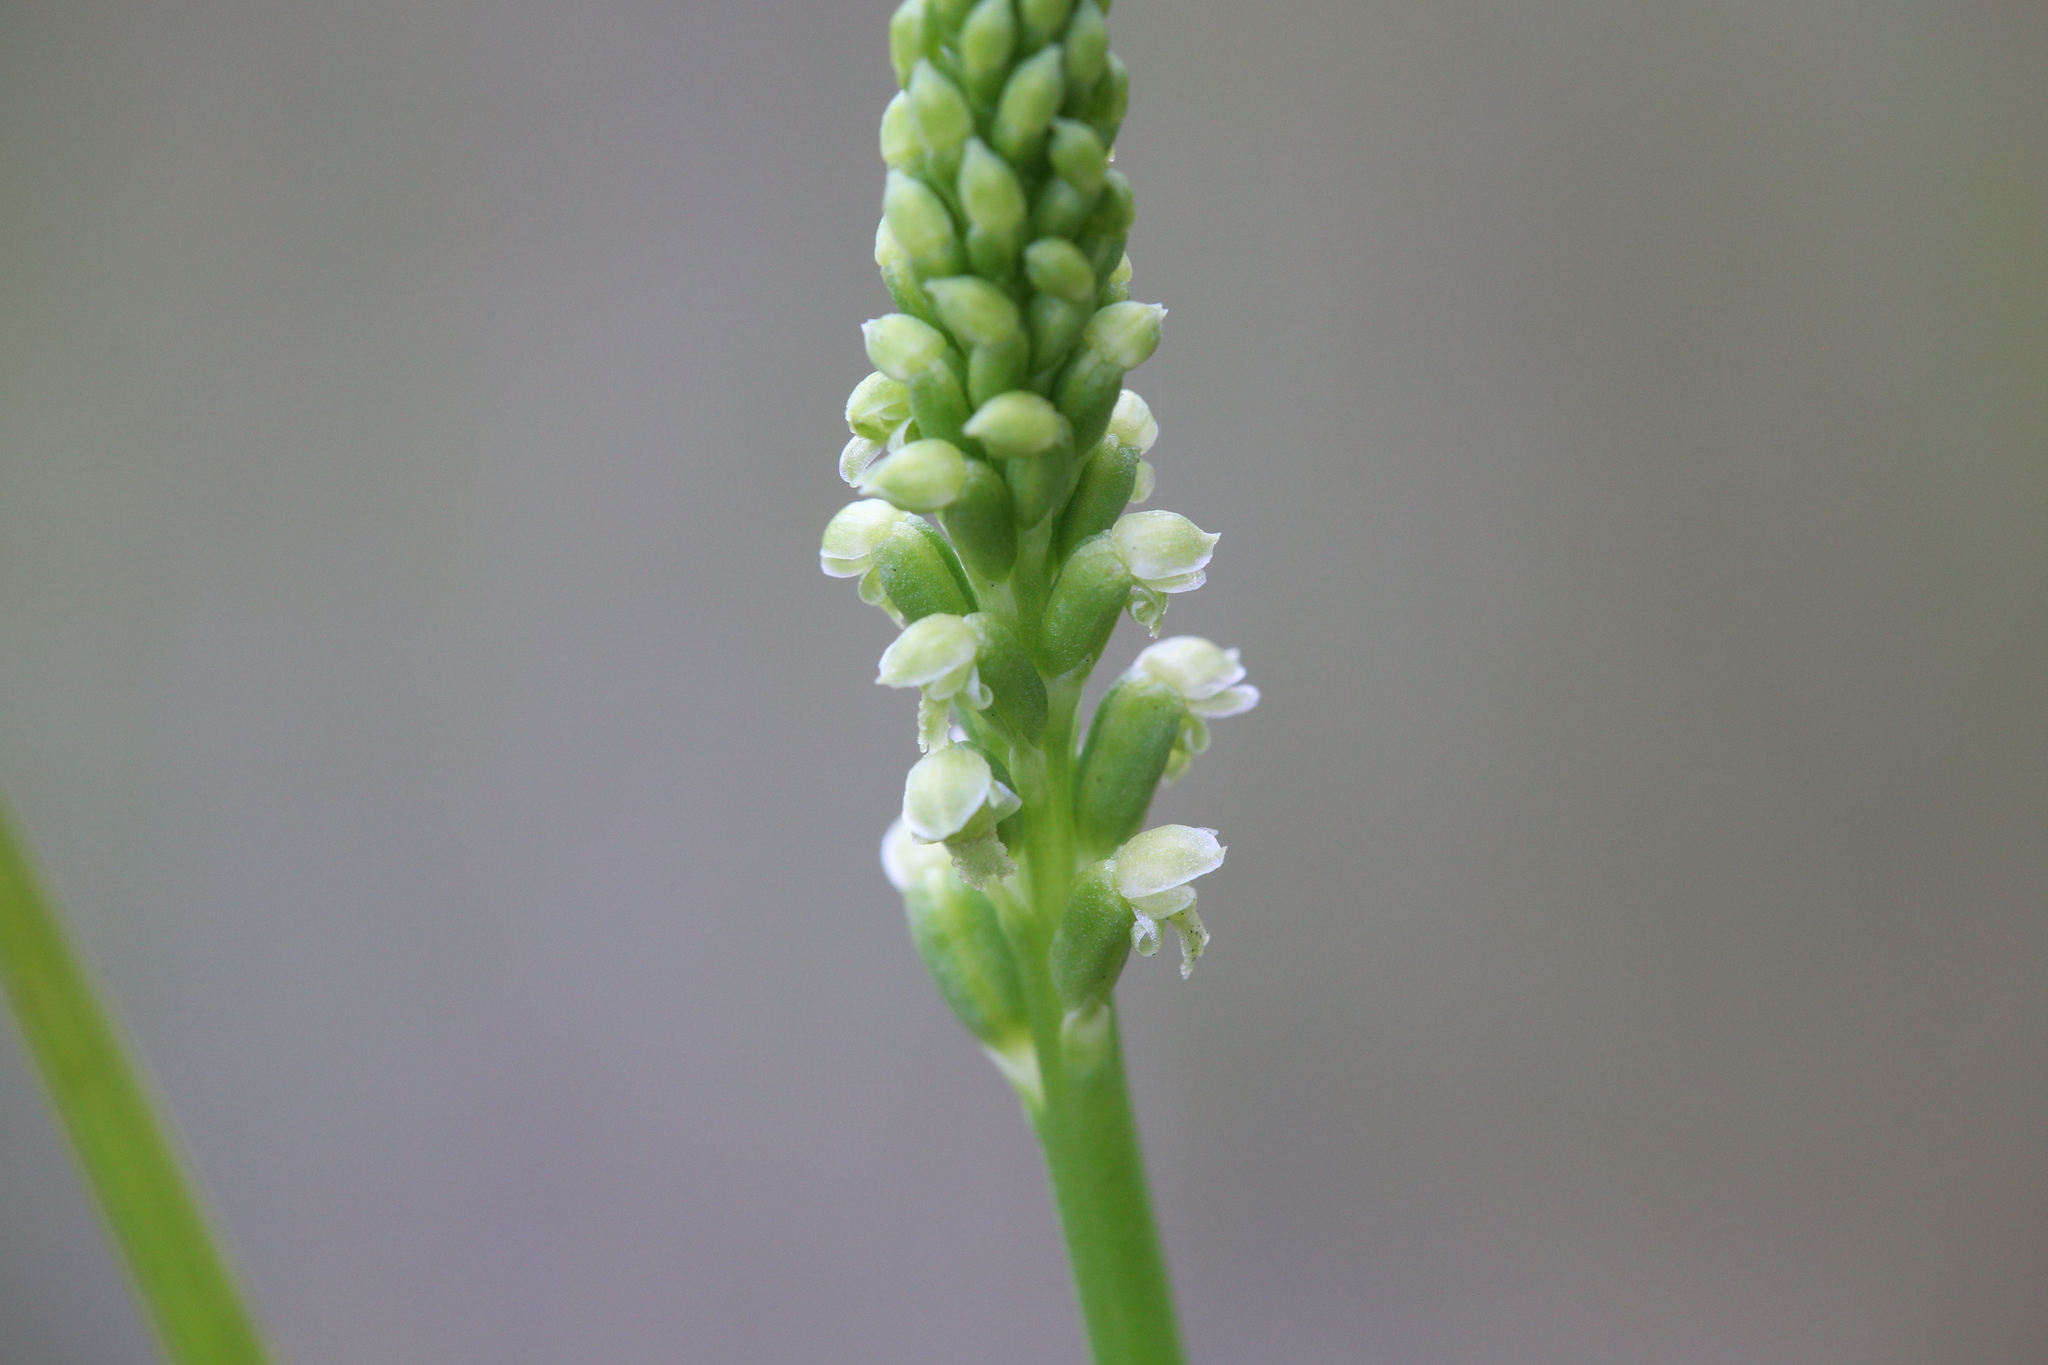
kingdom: Plantae
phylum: Tracheophyta
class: Liliopsida
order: Asparagales
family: Orchidaceae
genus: Microtis
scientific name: Microtis alboviridis
